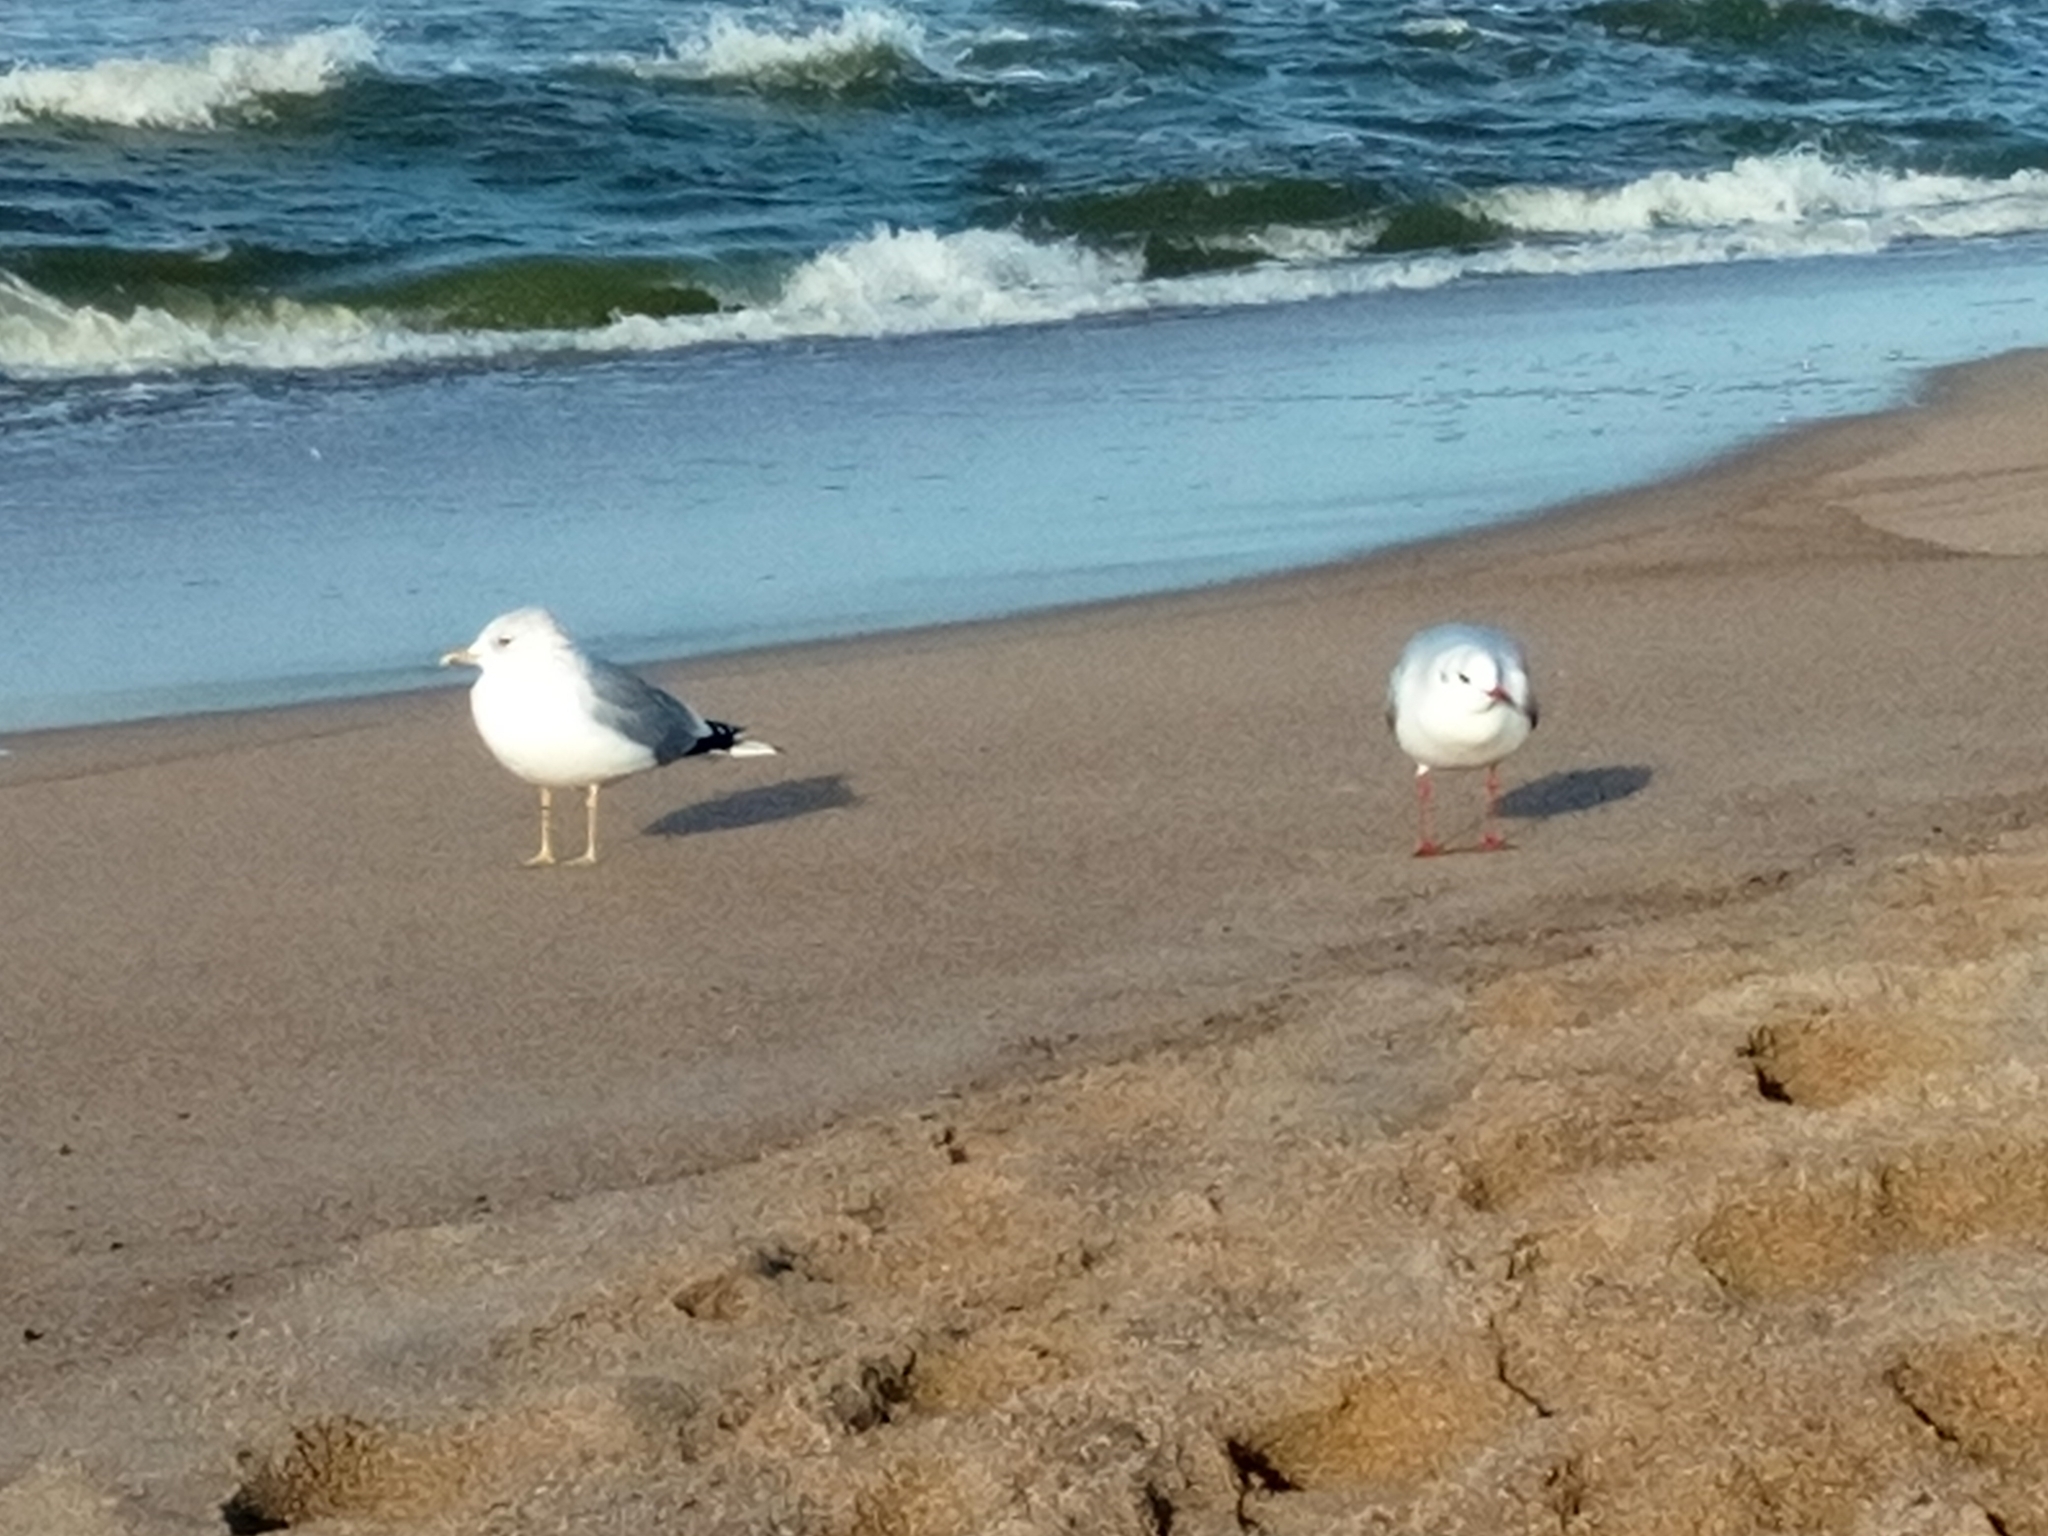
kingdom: Animalia
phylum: Chordata
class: Aves
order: Charadriiformes
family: Laridae
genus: Chroicocephalus
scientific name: Chroicocephalus ridibundus
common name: Black-headed gull
